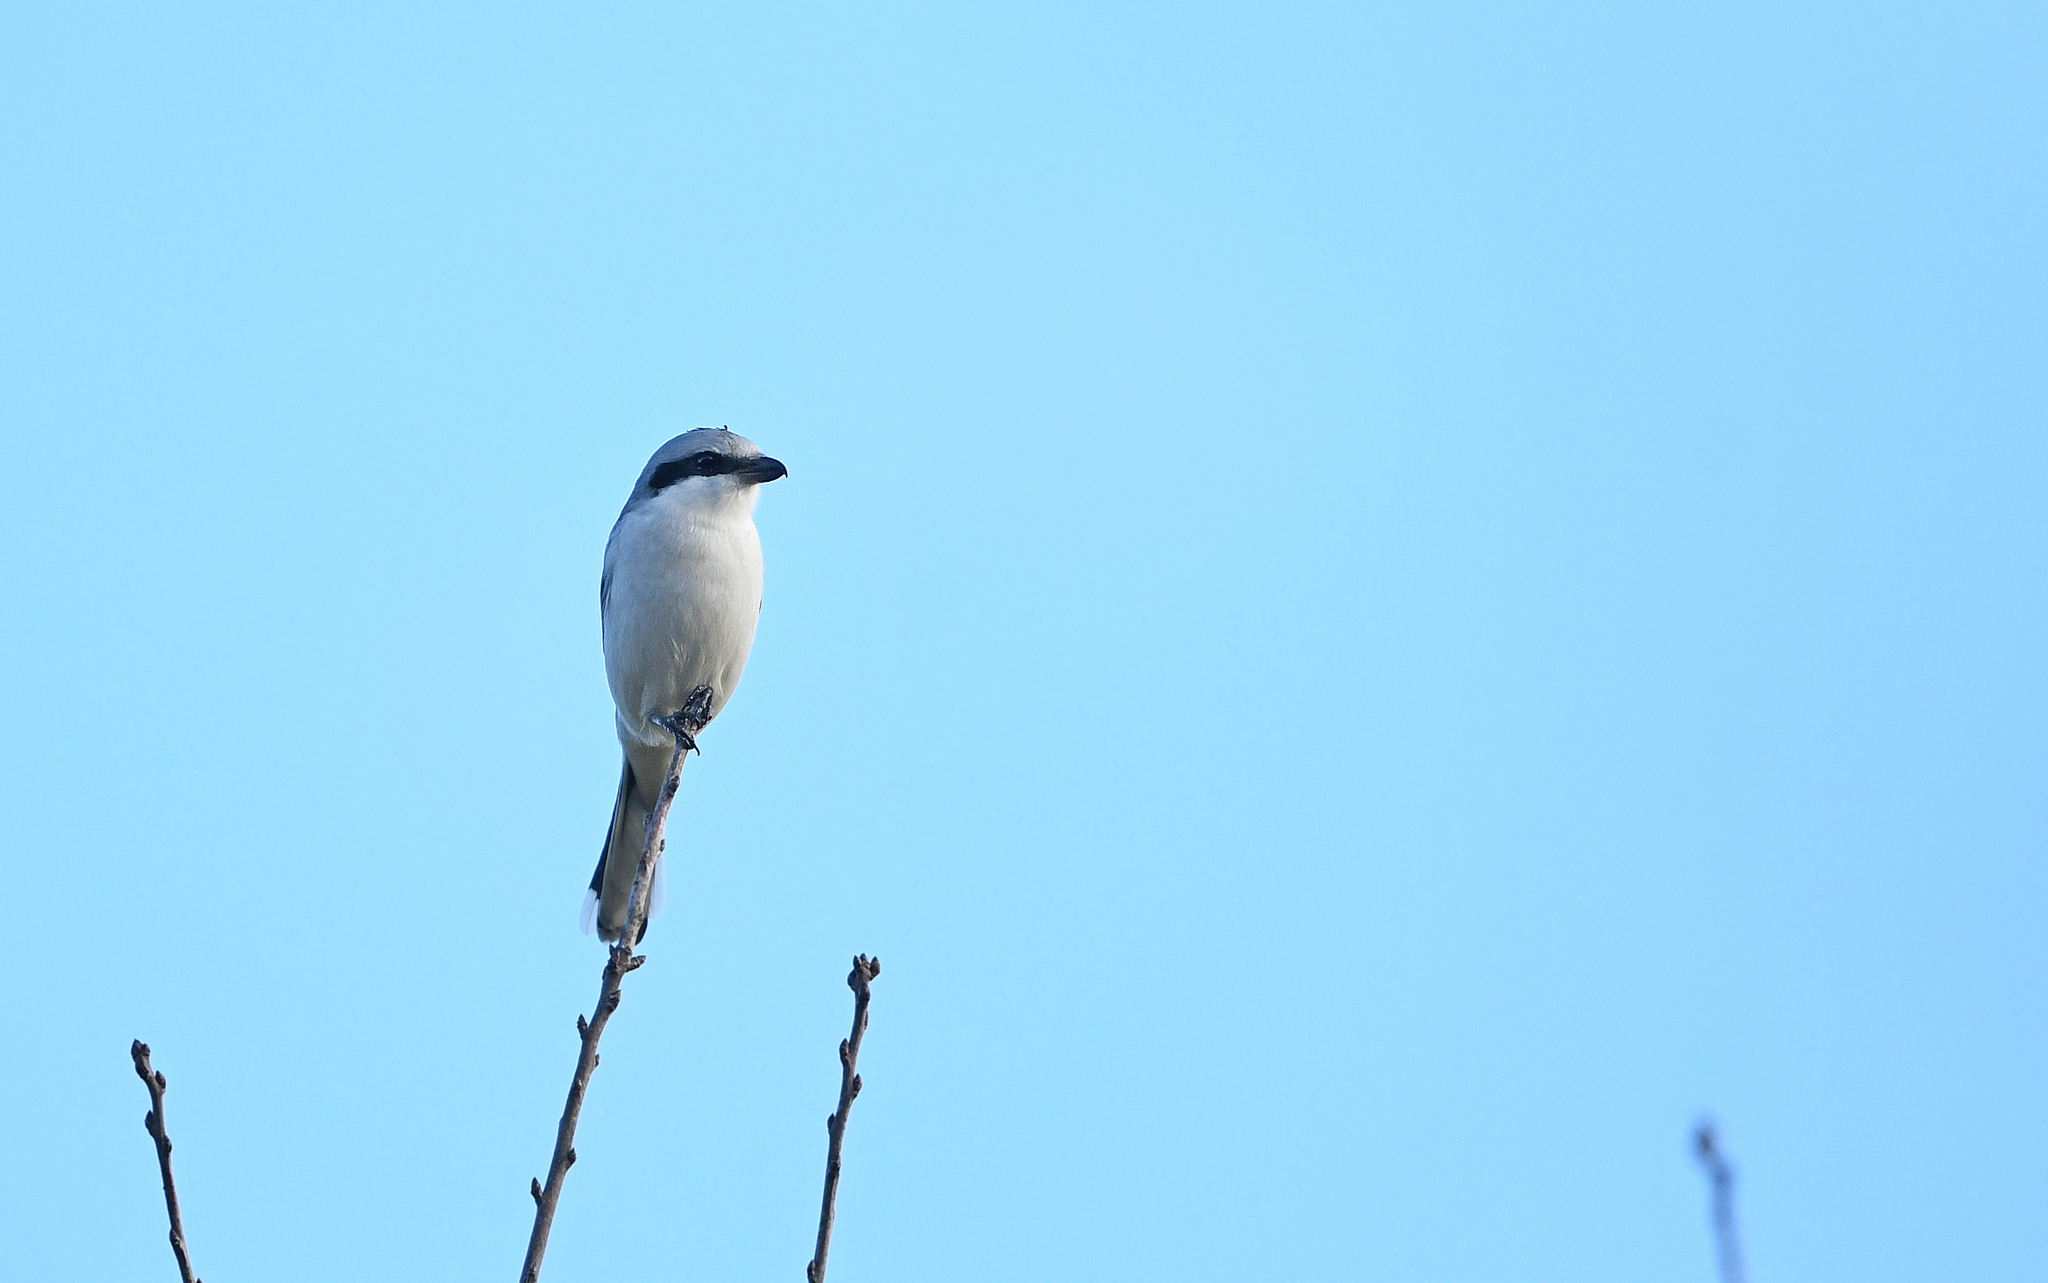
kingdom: Animalia
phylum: Chordata
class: Aves
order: Passeriformes
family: Laniidae
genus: Lanius
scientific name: Lanius excubitor
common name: Great grey shrike
